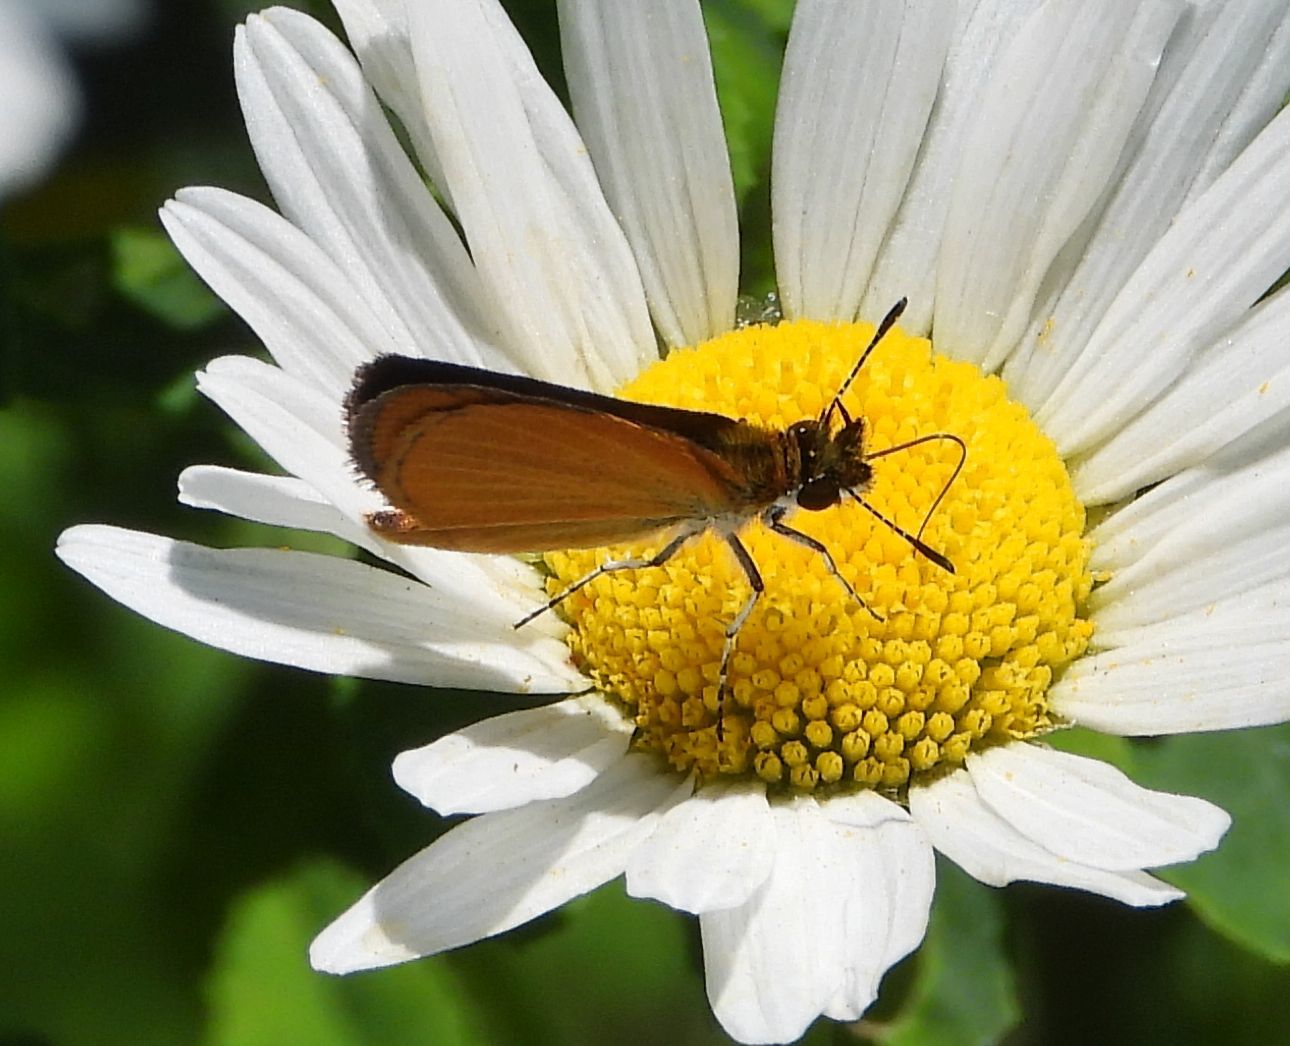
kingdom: Animalia
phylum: Arthropoda
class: Insecta
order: Lepidoptera
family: Hesperiidae
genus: Ancyloxypha
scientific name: Ancyloxypha numitor
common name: Least skipper
